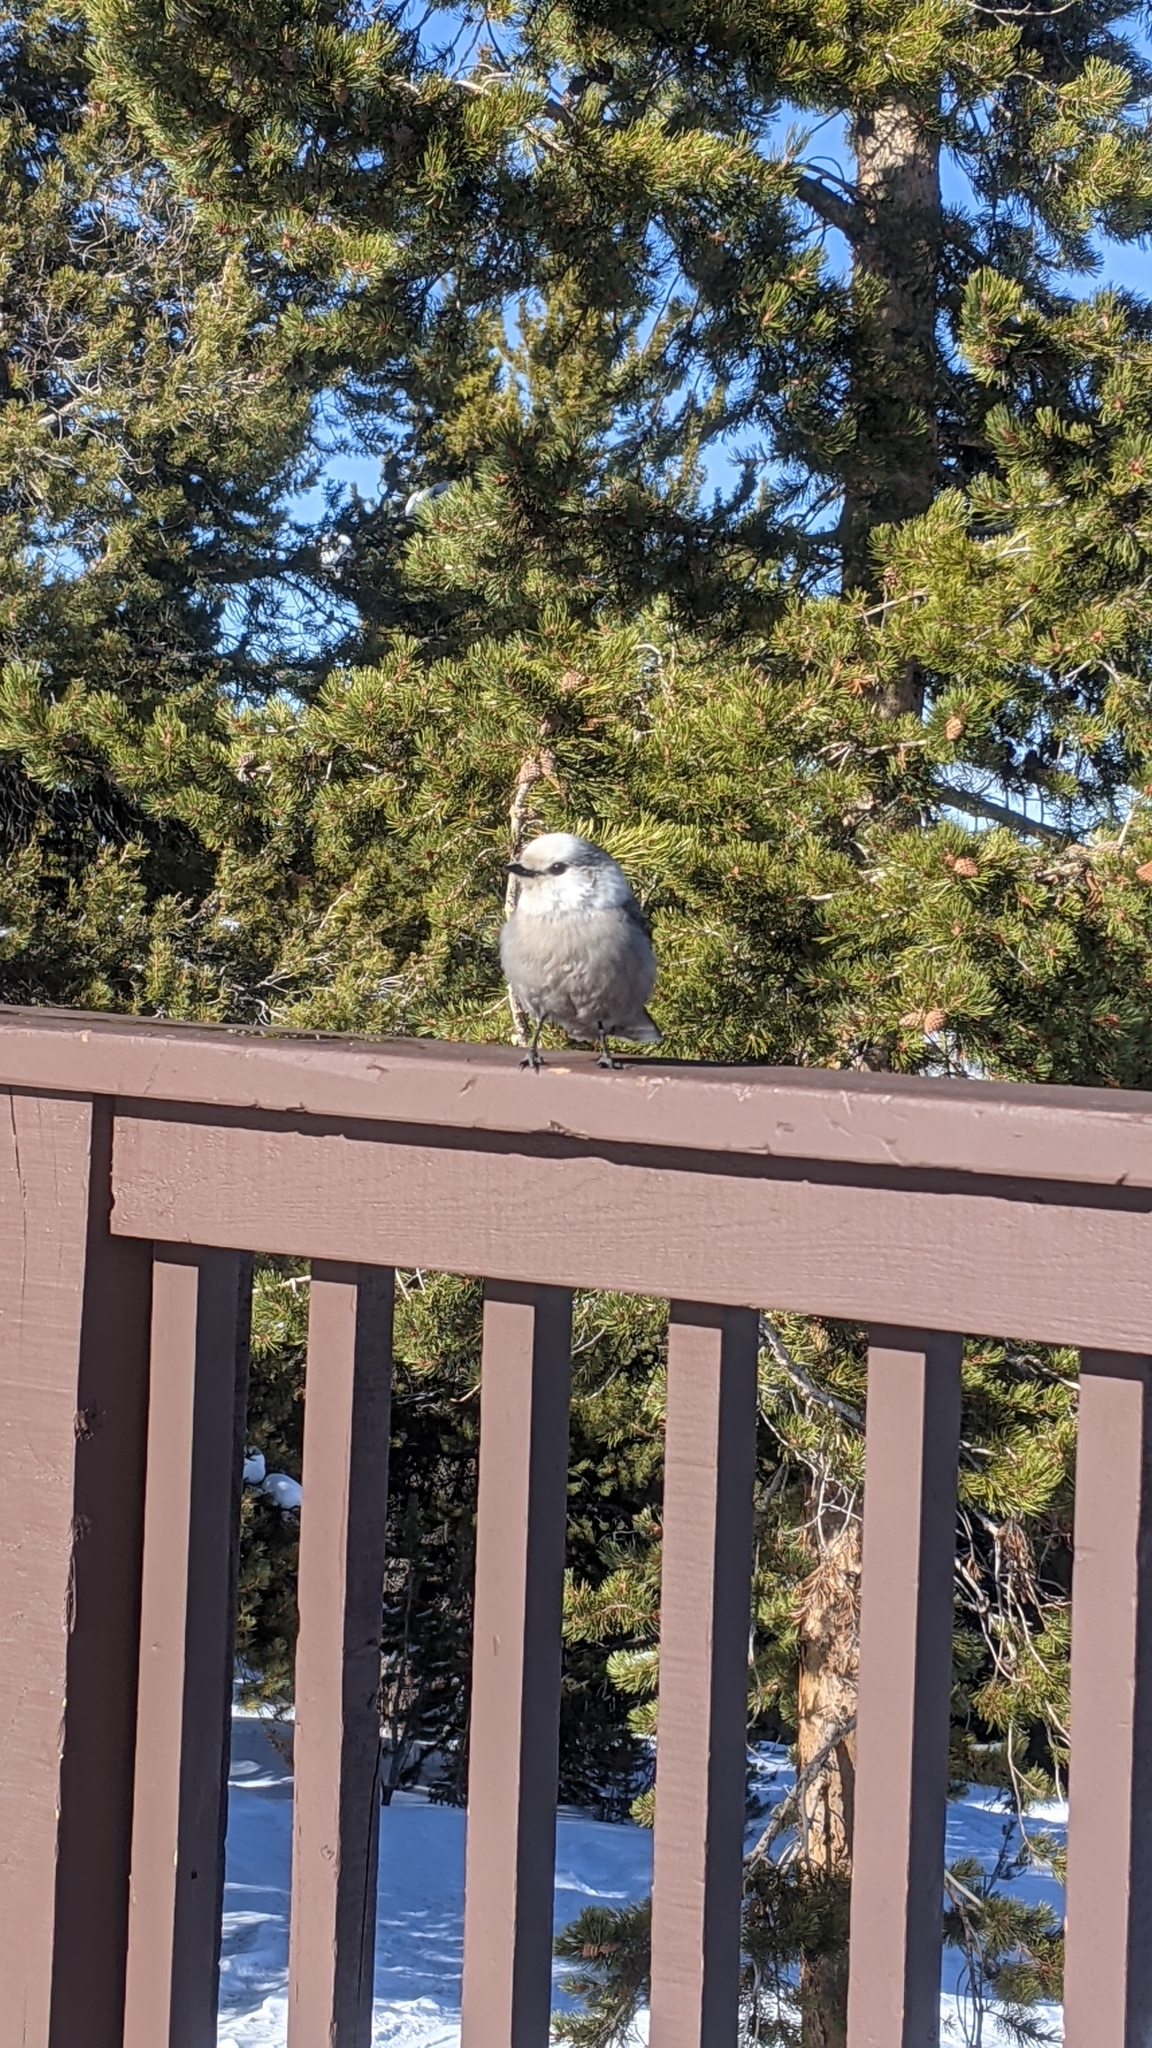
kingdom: Animalia
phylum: Chordata
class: Aves
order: Passeriformes
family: Corvidae
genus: Perisoreus
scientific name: Perisoreus canadensis
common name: Gray jay
